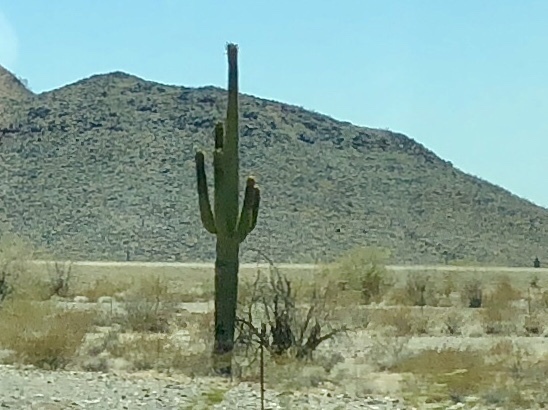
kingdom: Plantae
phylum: Tracheophyta
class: Magnoliopsida
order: Caryophyllales
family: Cactaceae
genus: Carnegiea
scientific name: Carnegiea gigantea
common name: Saguaro
